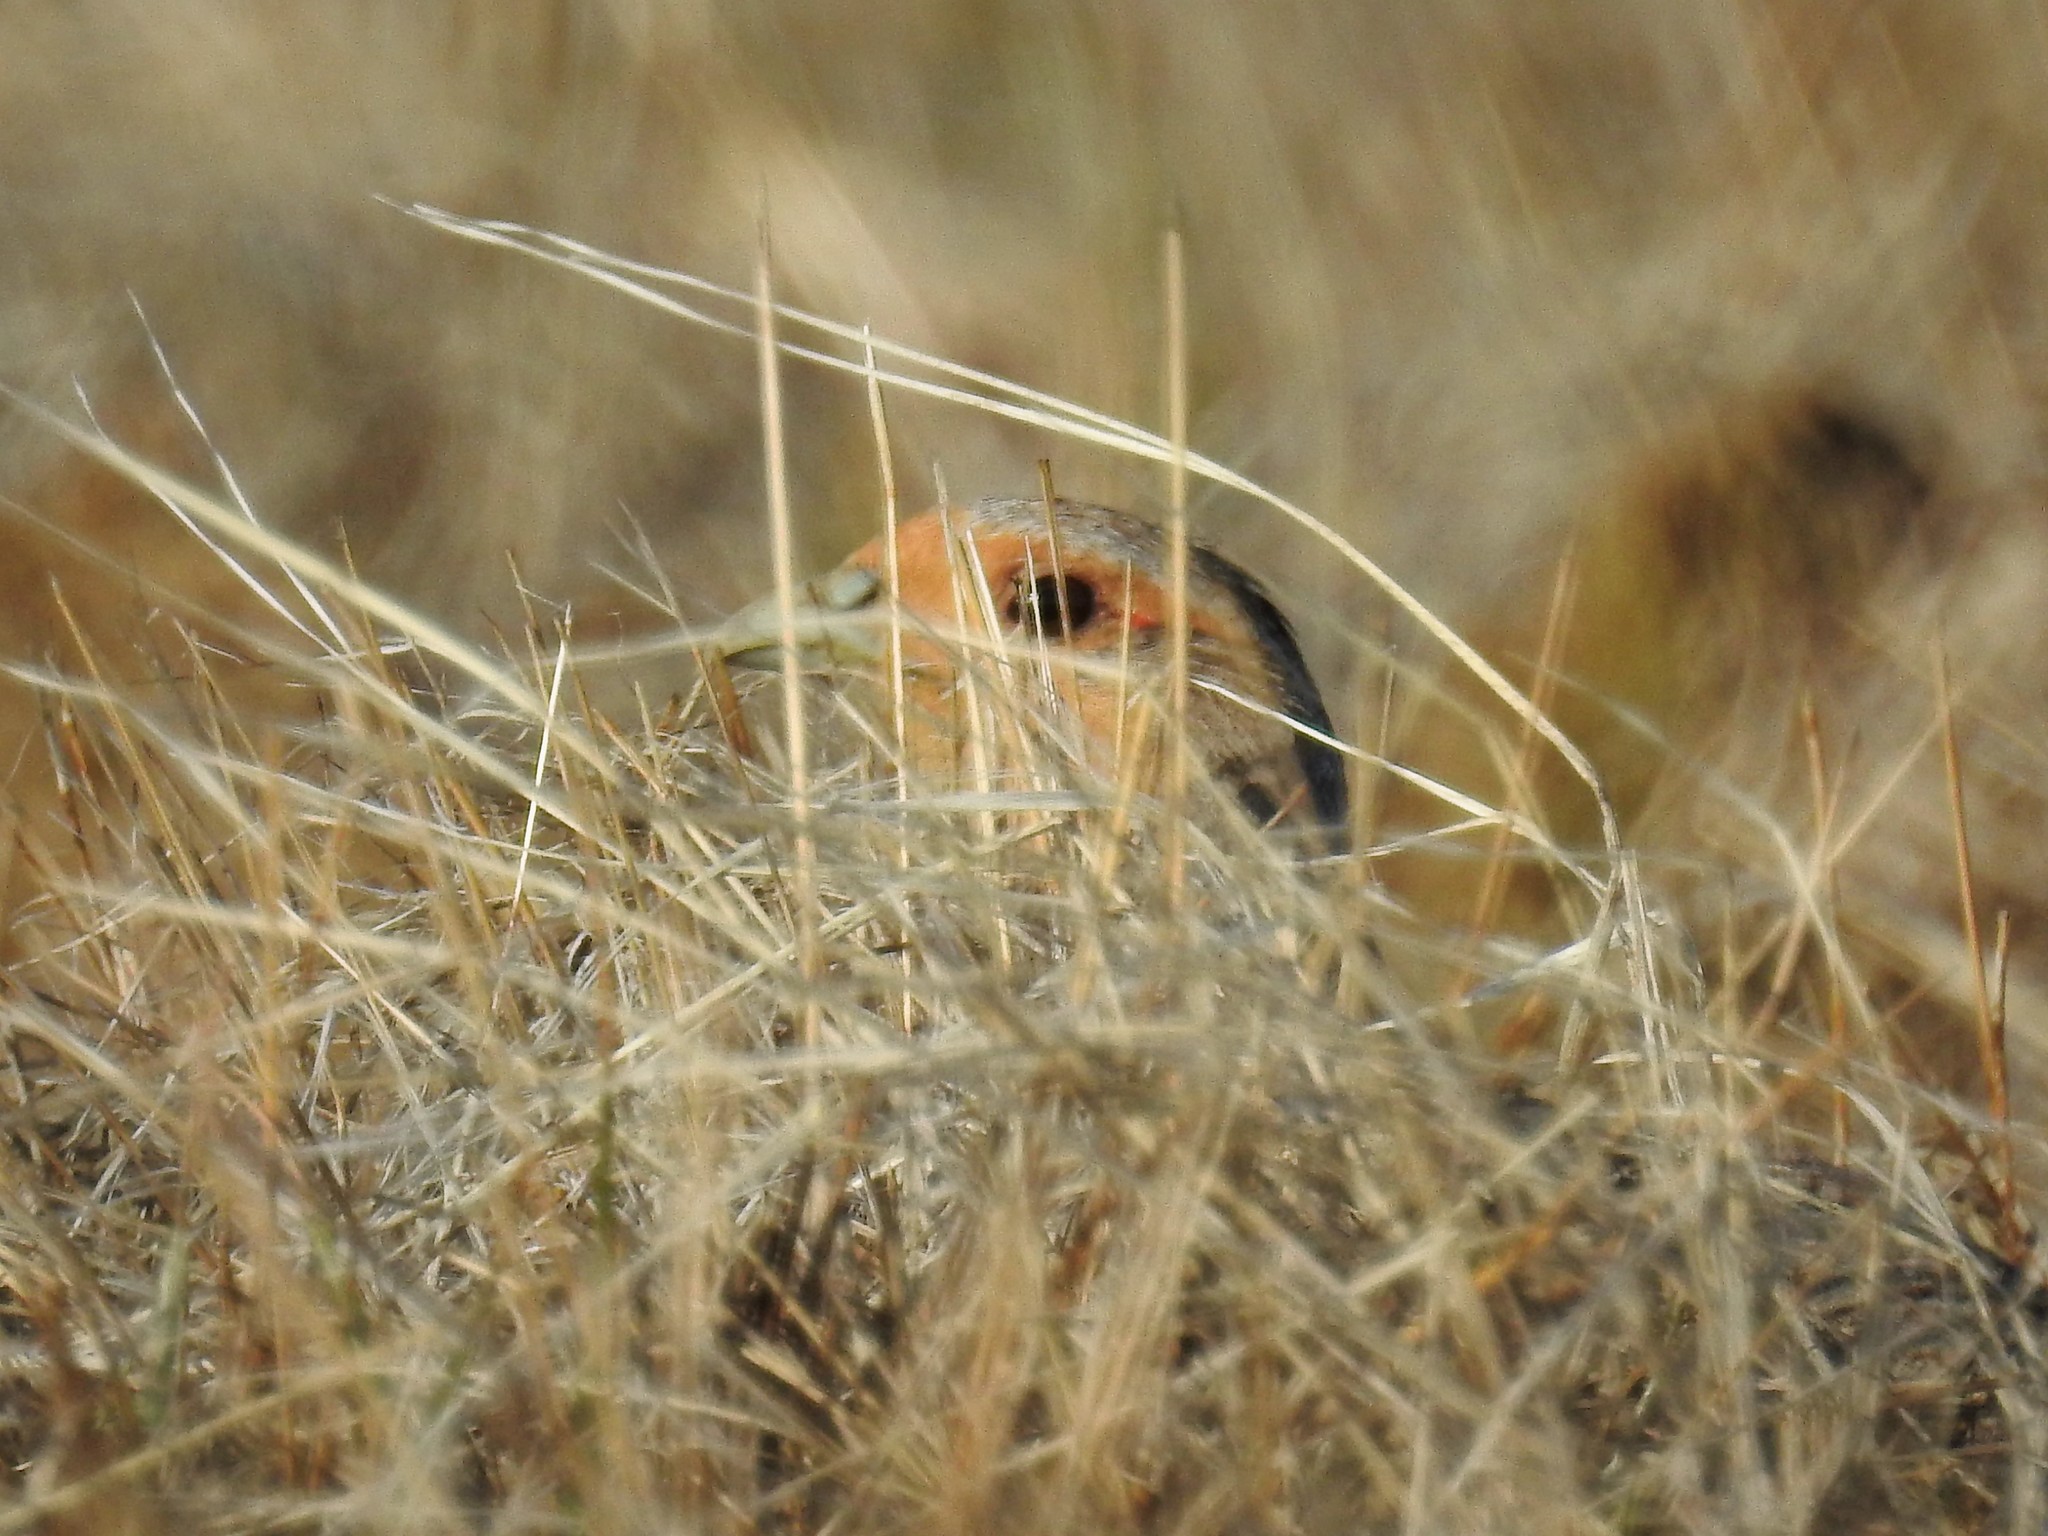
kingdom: Animalia
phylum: Chordata
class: Aves
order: Galliformes
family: Phasianidae
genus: Perdix
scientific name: Perdix perdix
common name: Grey partridge
